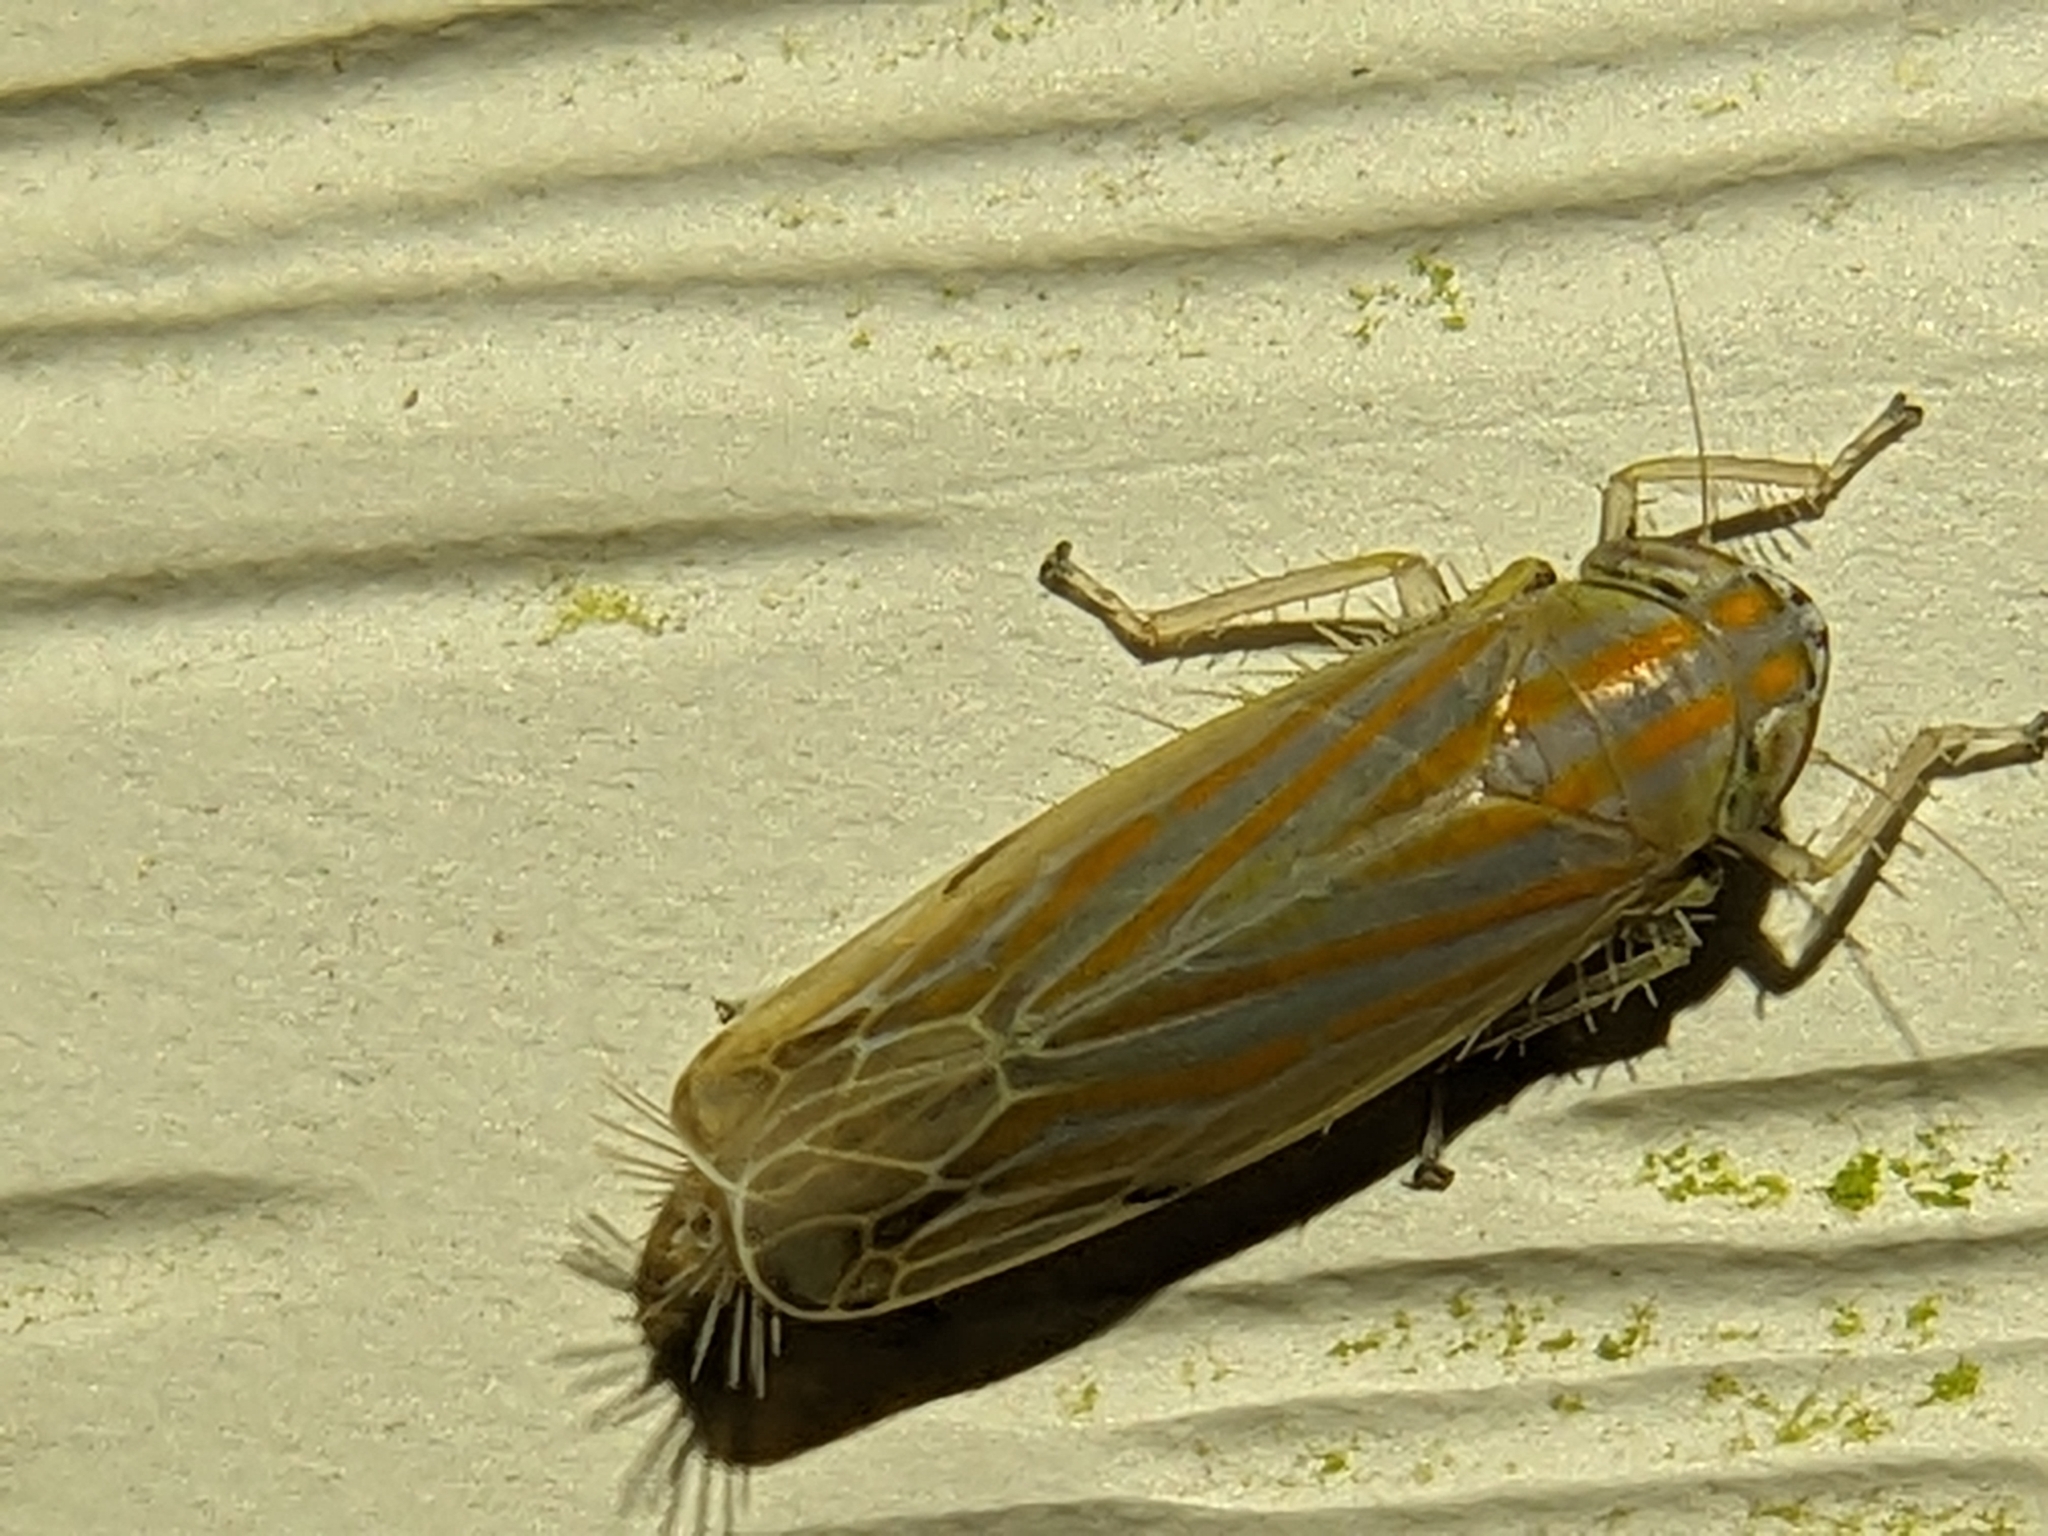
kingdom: Animalia
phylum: Arthropoda
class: Insecta
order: Hemiptera
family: Cicadellidae
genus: Deltanus
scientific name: Deltanus texanus
